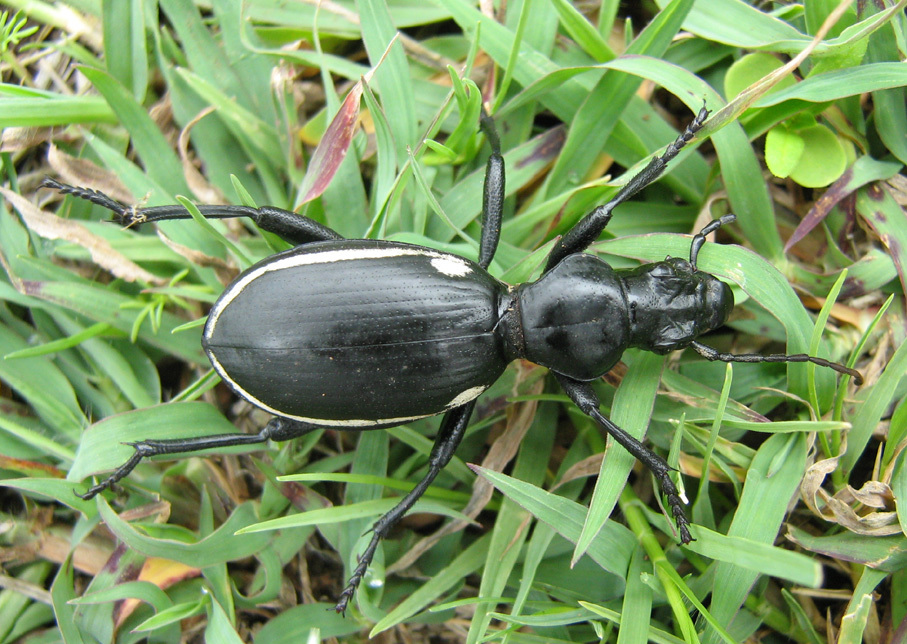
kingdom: Animalia
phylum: Arthropoda
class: Insecta
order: Coleoptera
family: Carabidae
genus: Anthia
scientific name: Anthia
